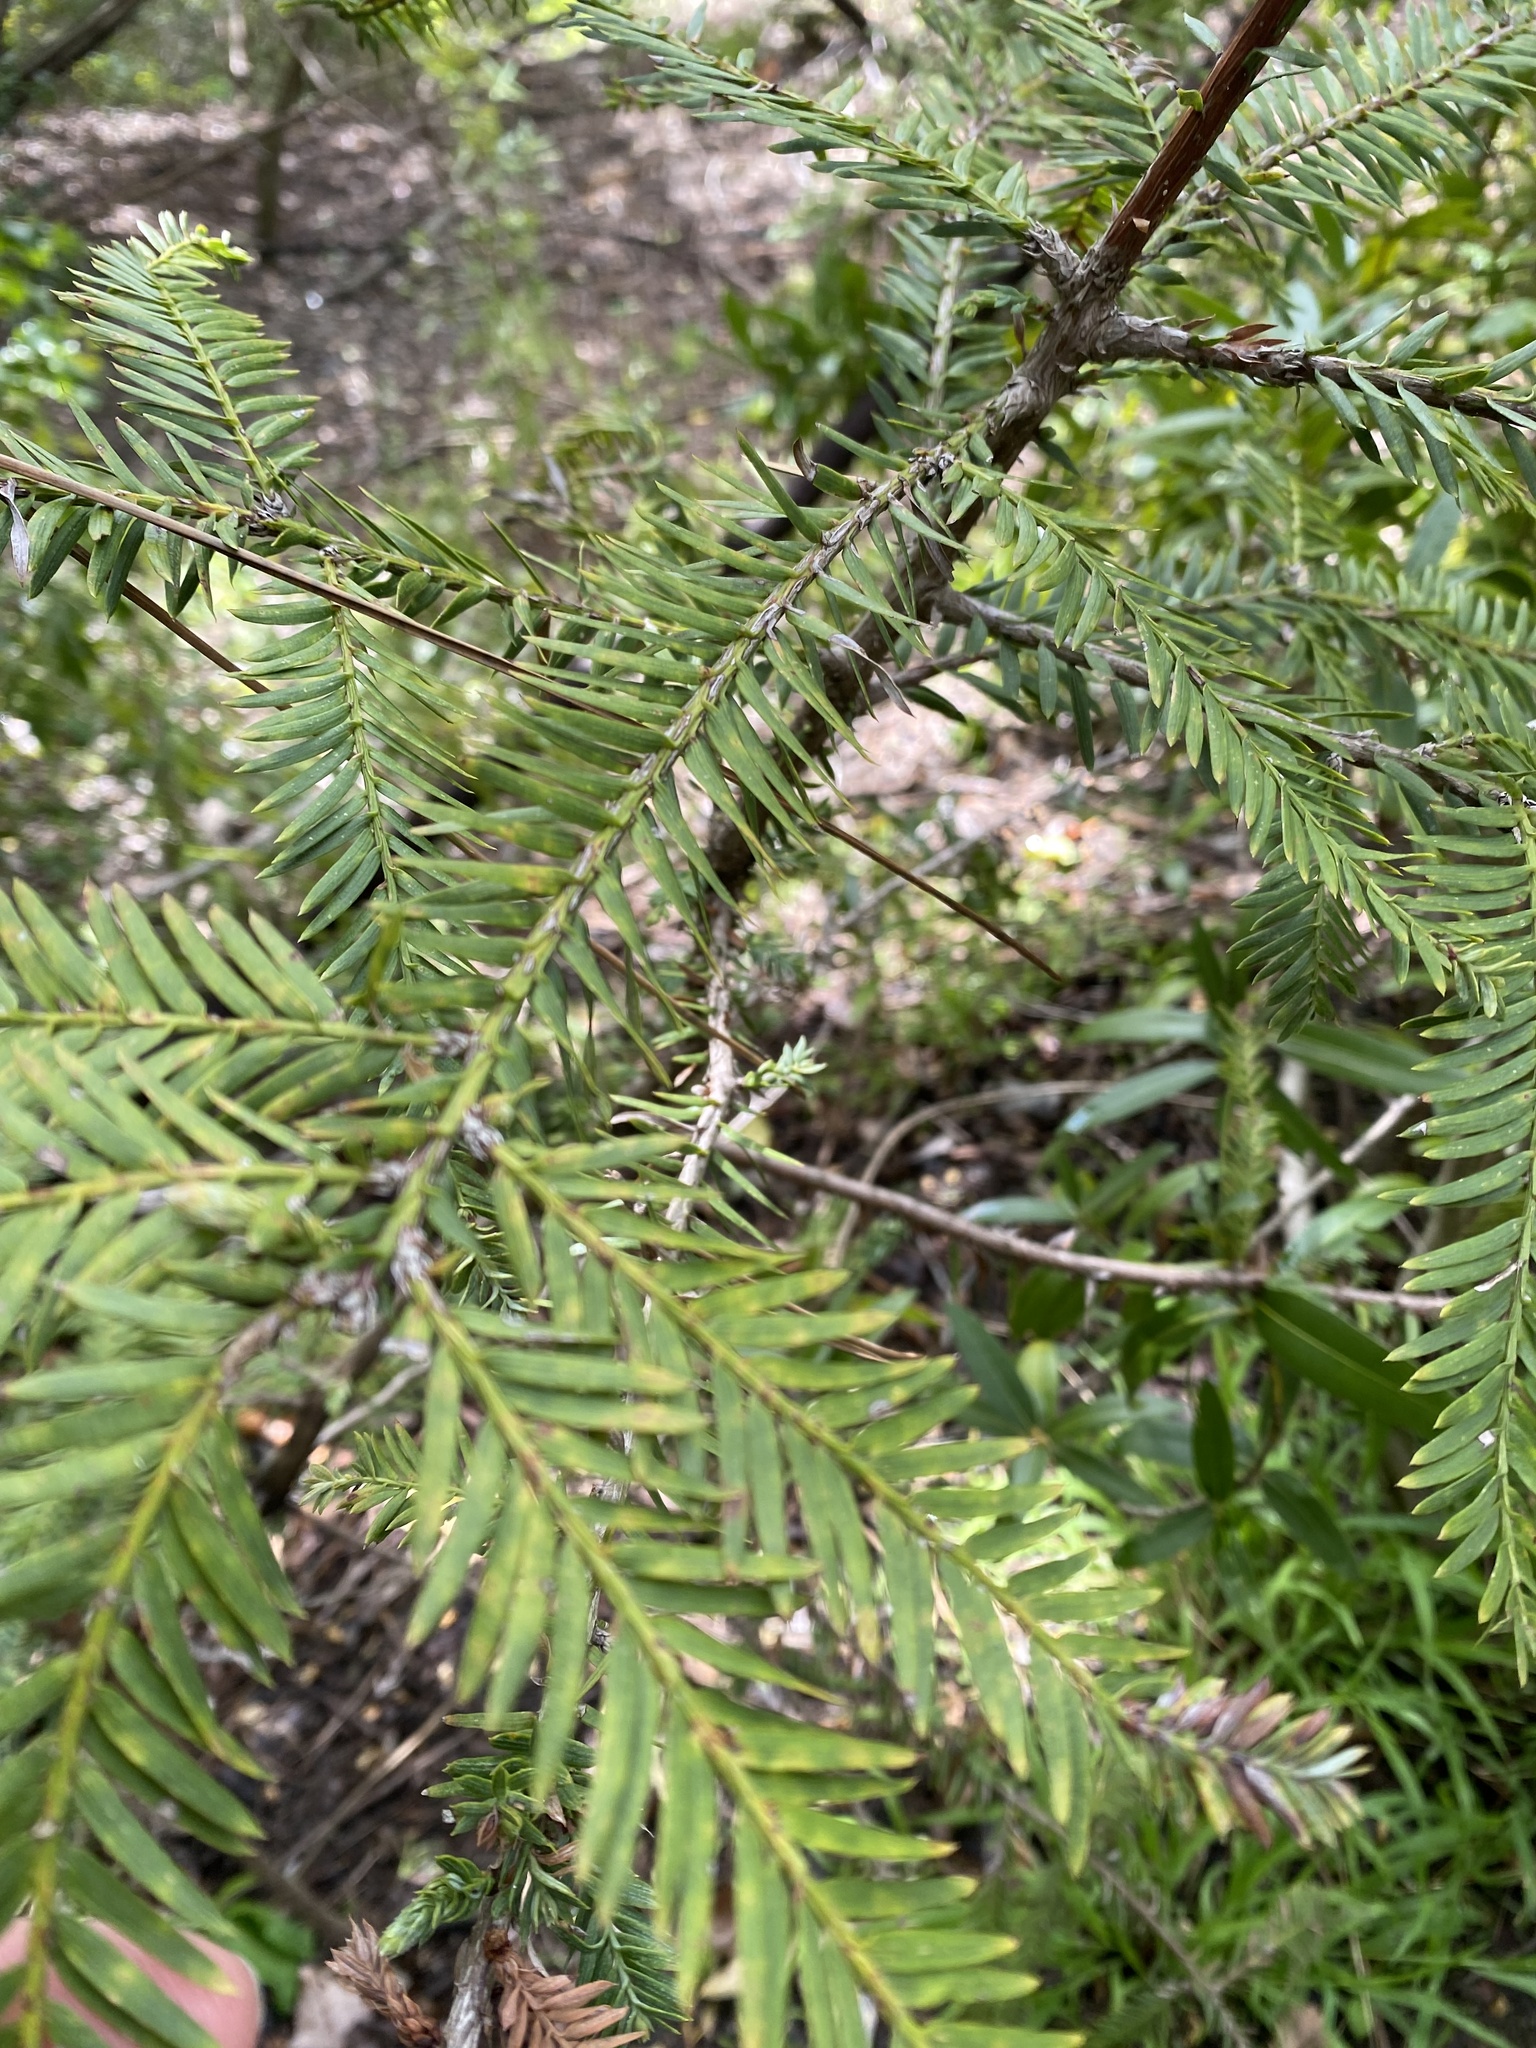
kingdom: Plantae
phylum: Tracheophyta
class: Pinopsida
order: Pinales
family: Cupressaceae
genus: Sequoia
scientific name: Sequoia sempervirens
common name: Coast redwood
